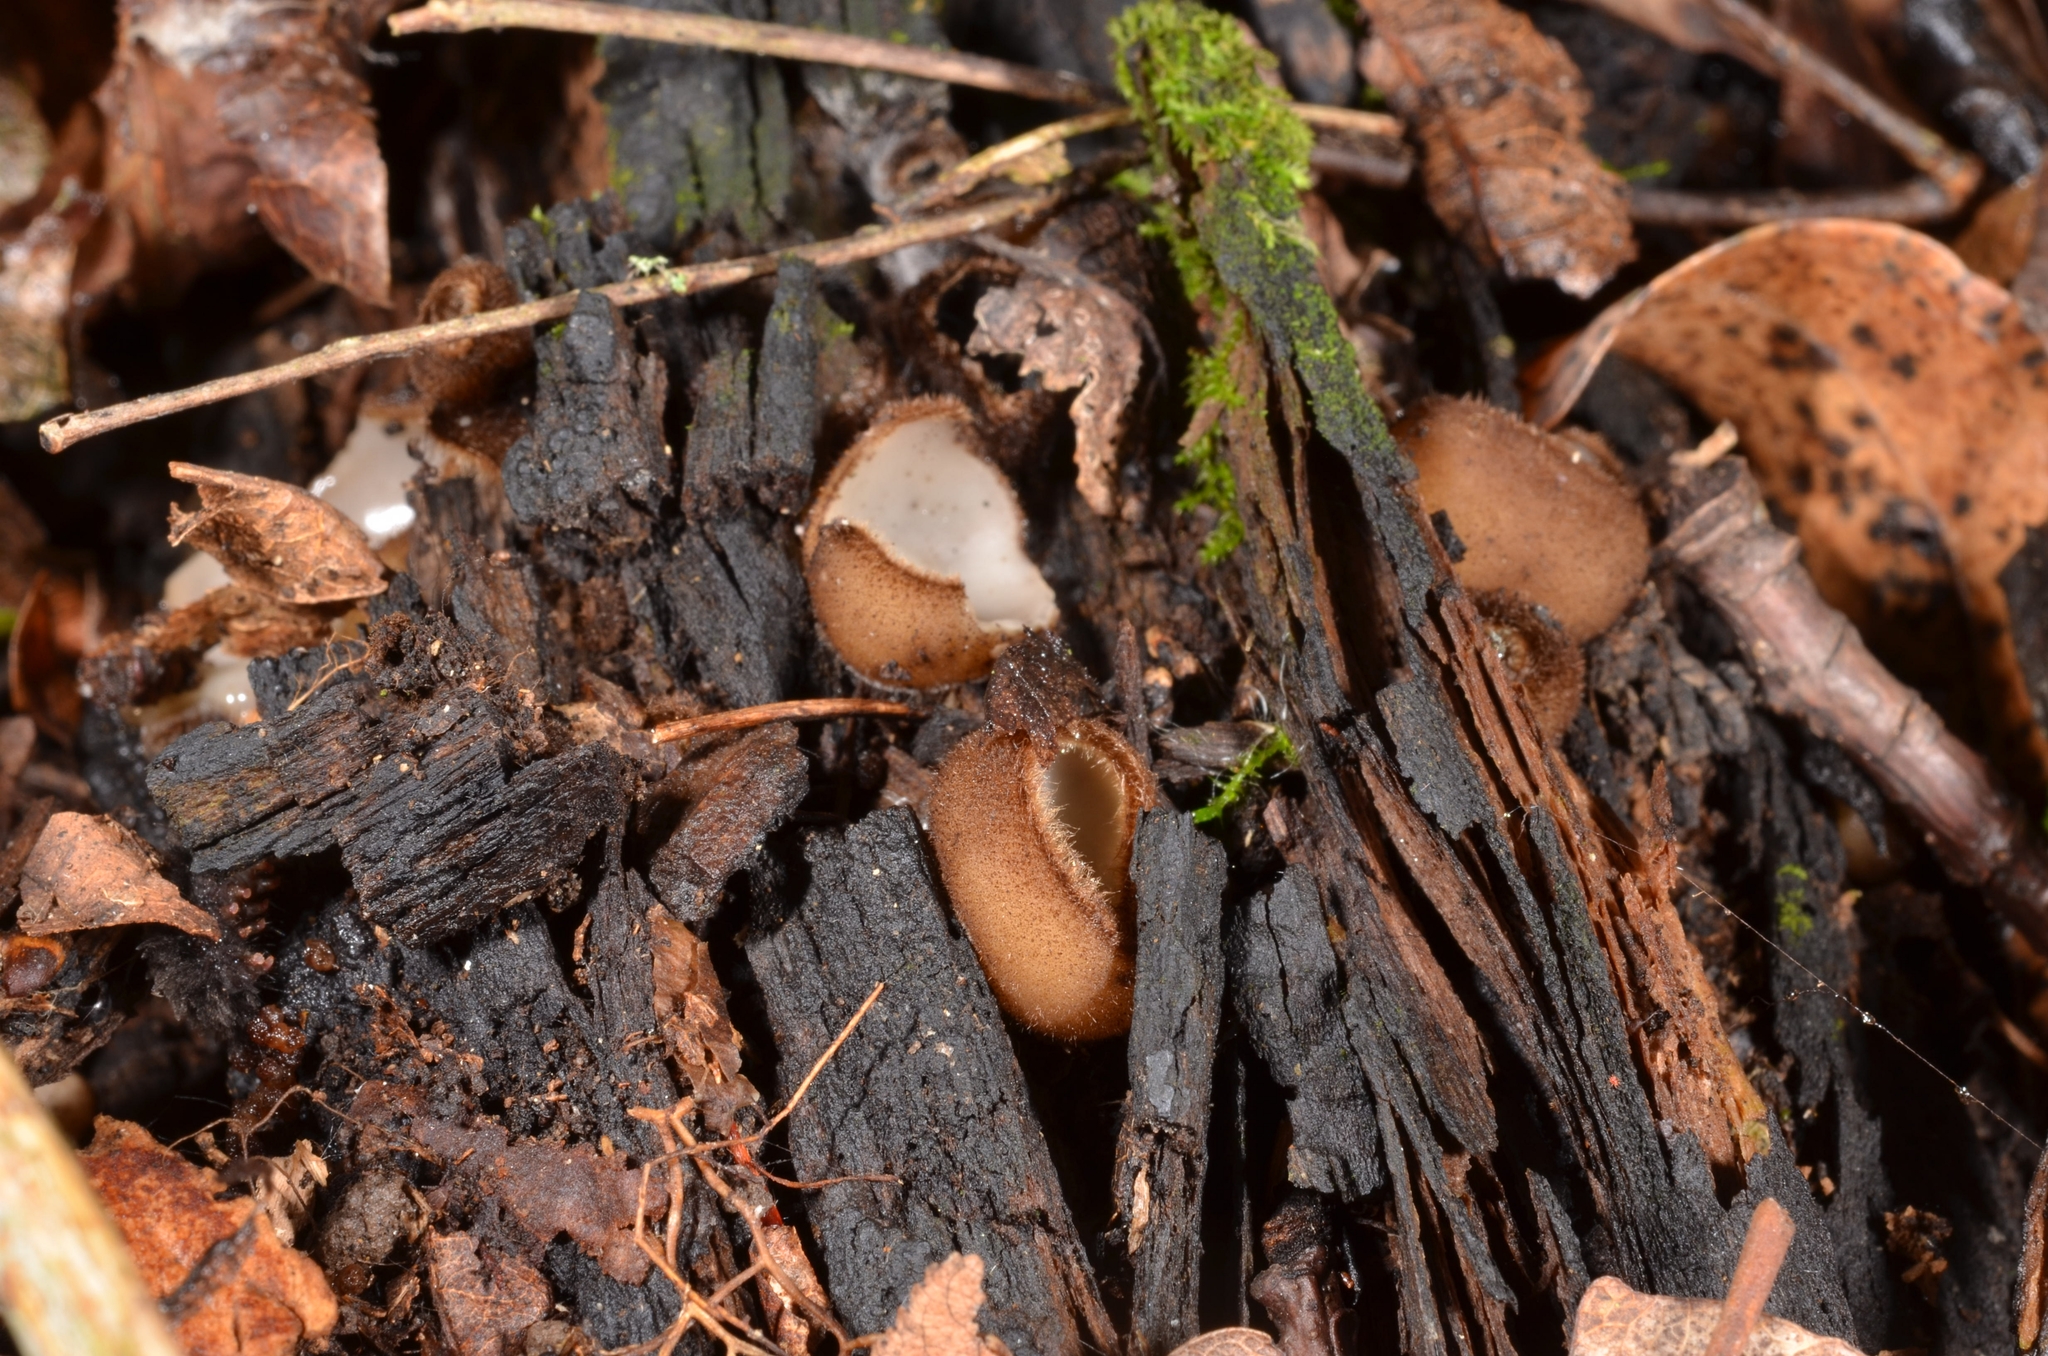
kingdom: Fungi
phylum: Ascomycota
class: Pezizomycetes
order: Pezizales
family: Pyronemataceae
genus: Humaria
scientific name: Humaria hemisphaerica
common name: Glazed cup
